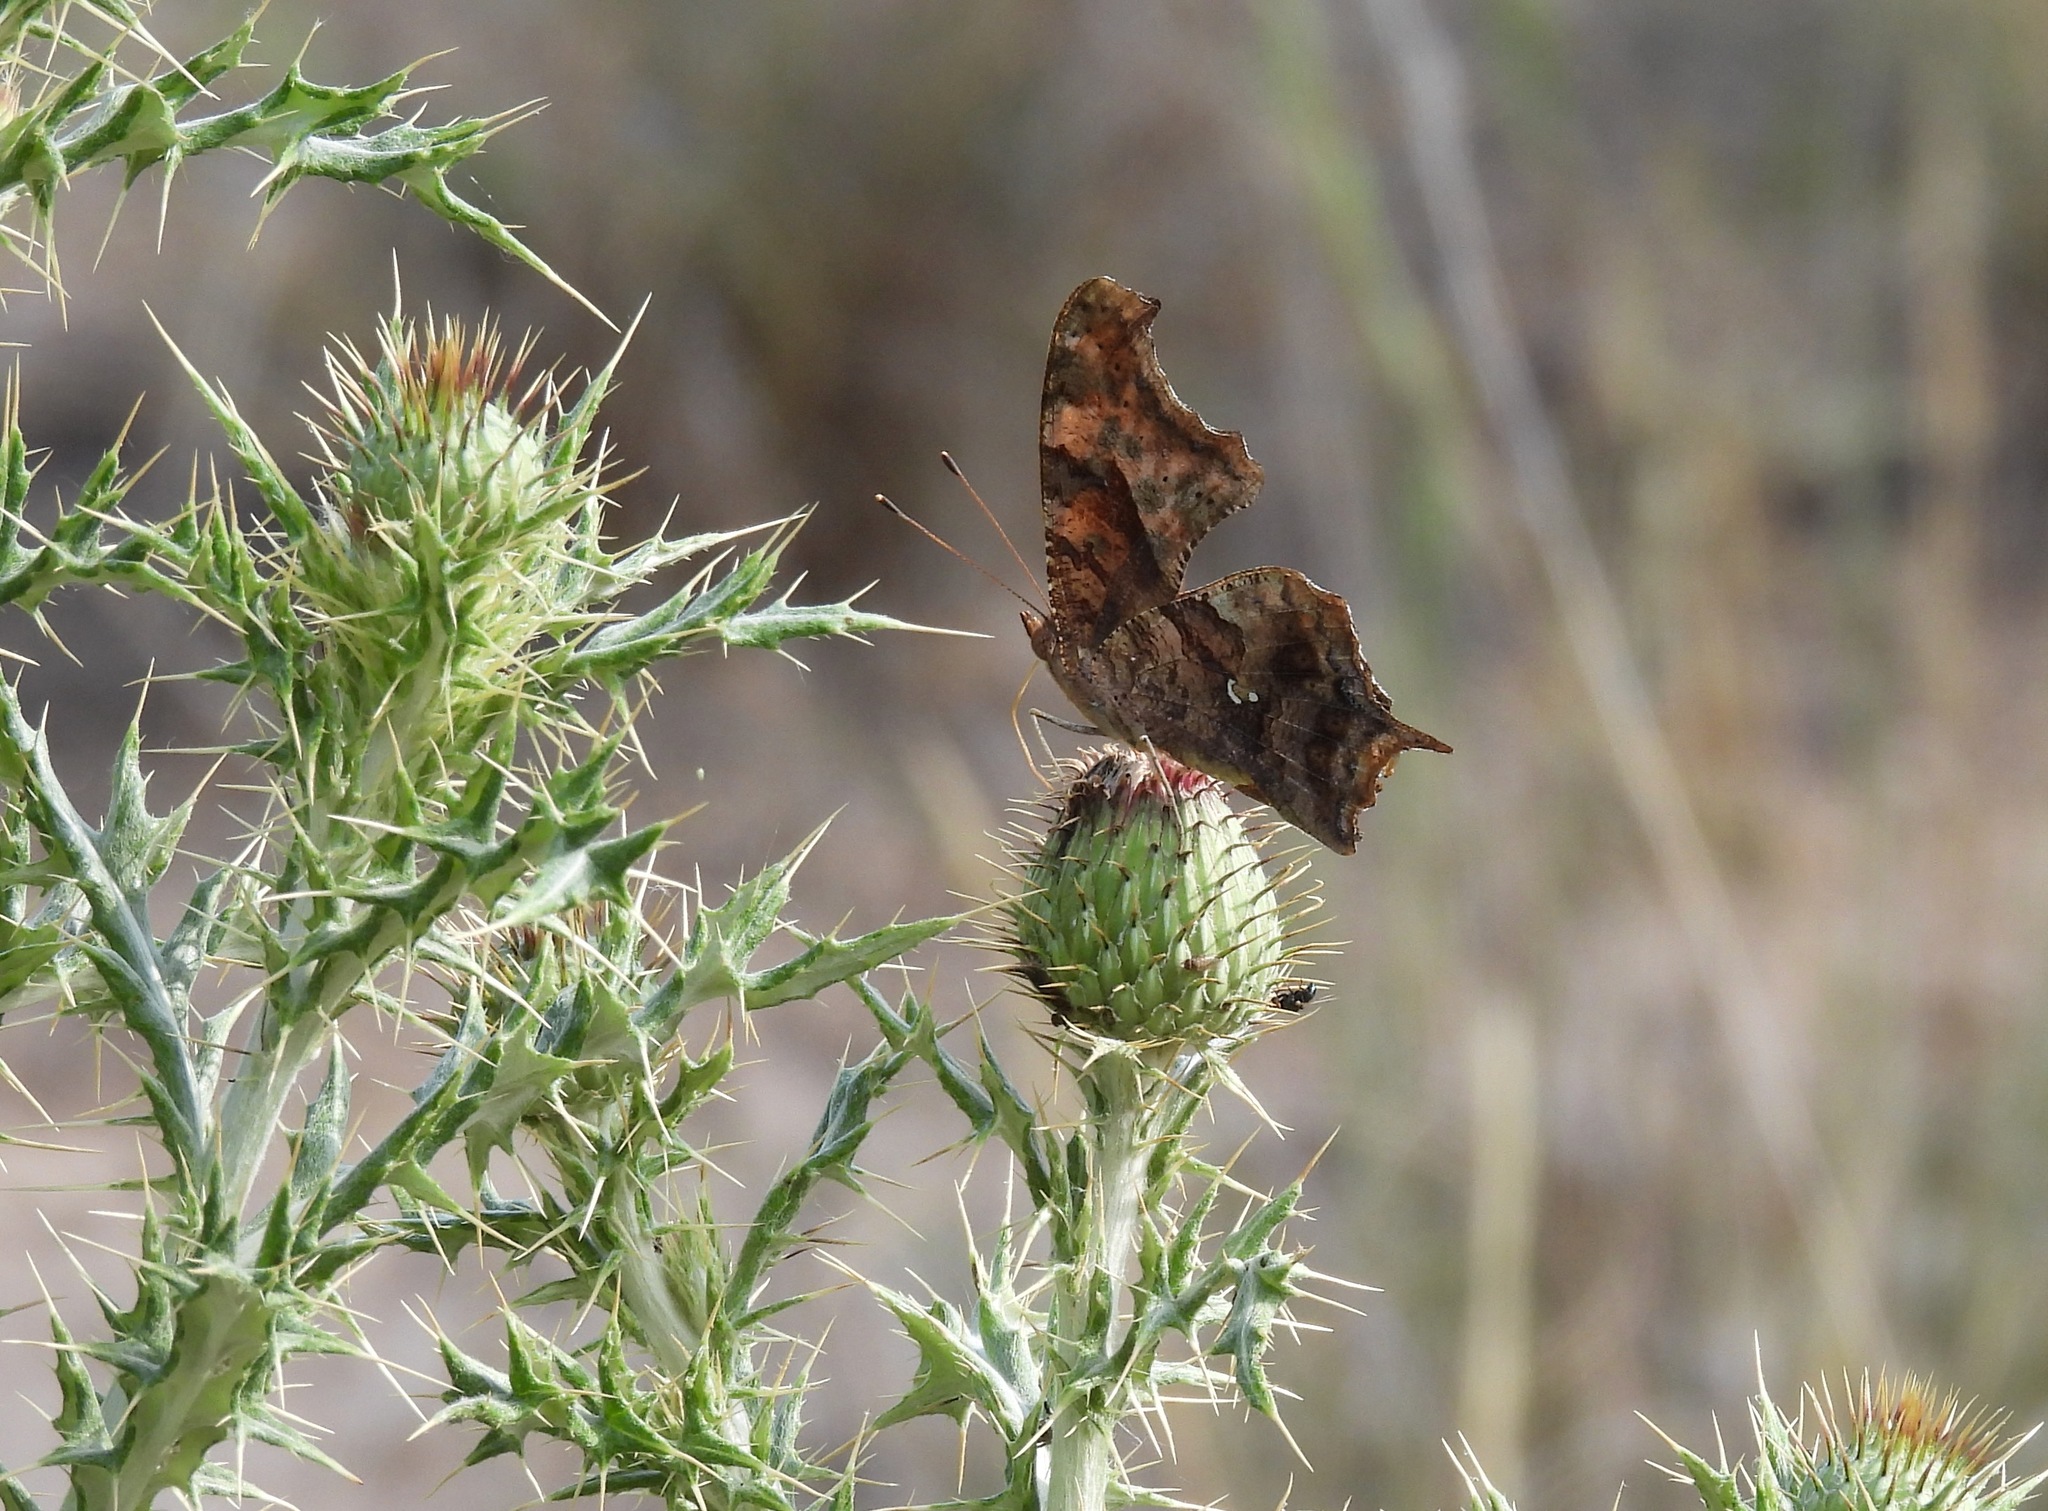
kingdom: Animalia
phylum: Arthropoda
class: Insecta
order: Lepidoptera
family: Nymphalidae
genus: Polygonia
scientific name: Polygonia interrogationis
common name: Question mark
